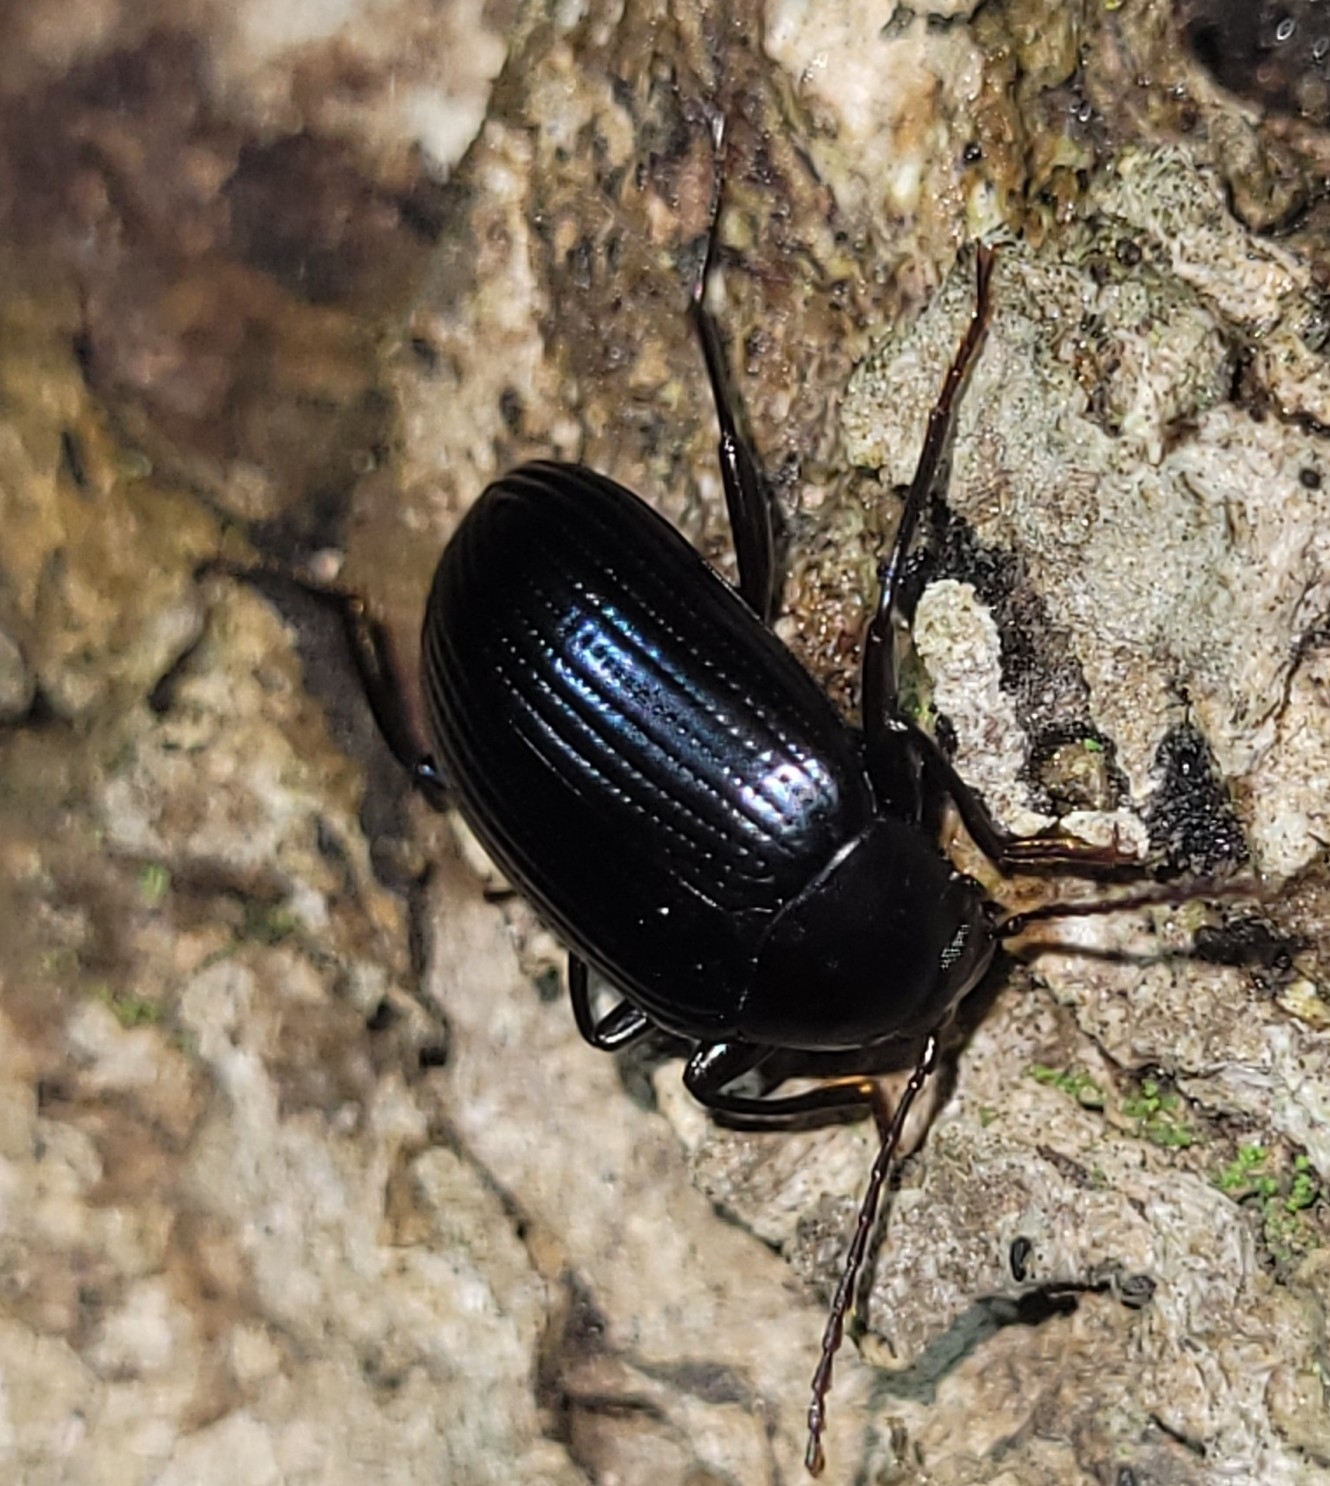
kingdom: Animalia
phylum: Arthropoda
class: Insecta
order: Coleoptera
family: Tenebrionidae
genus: Amarygmus
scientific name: Amarygmus
